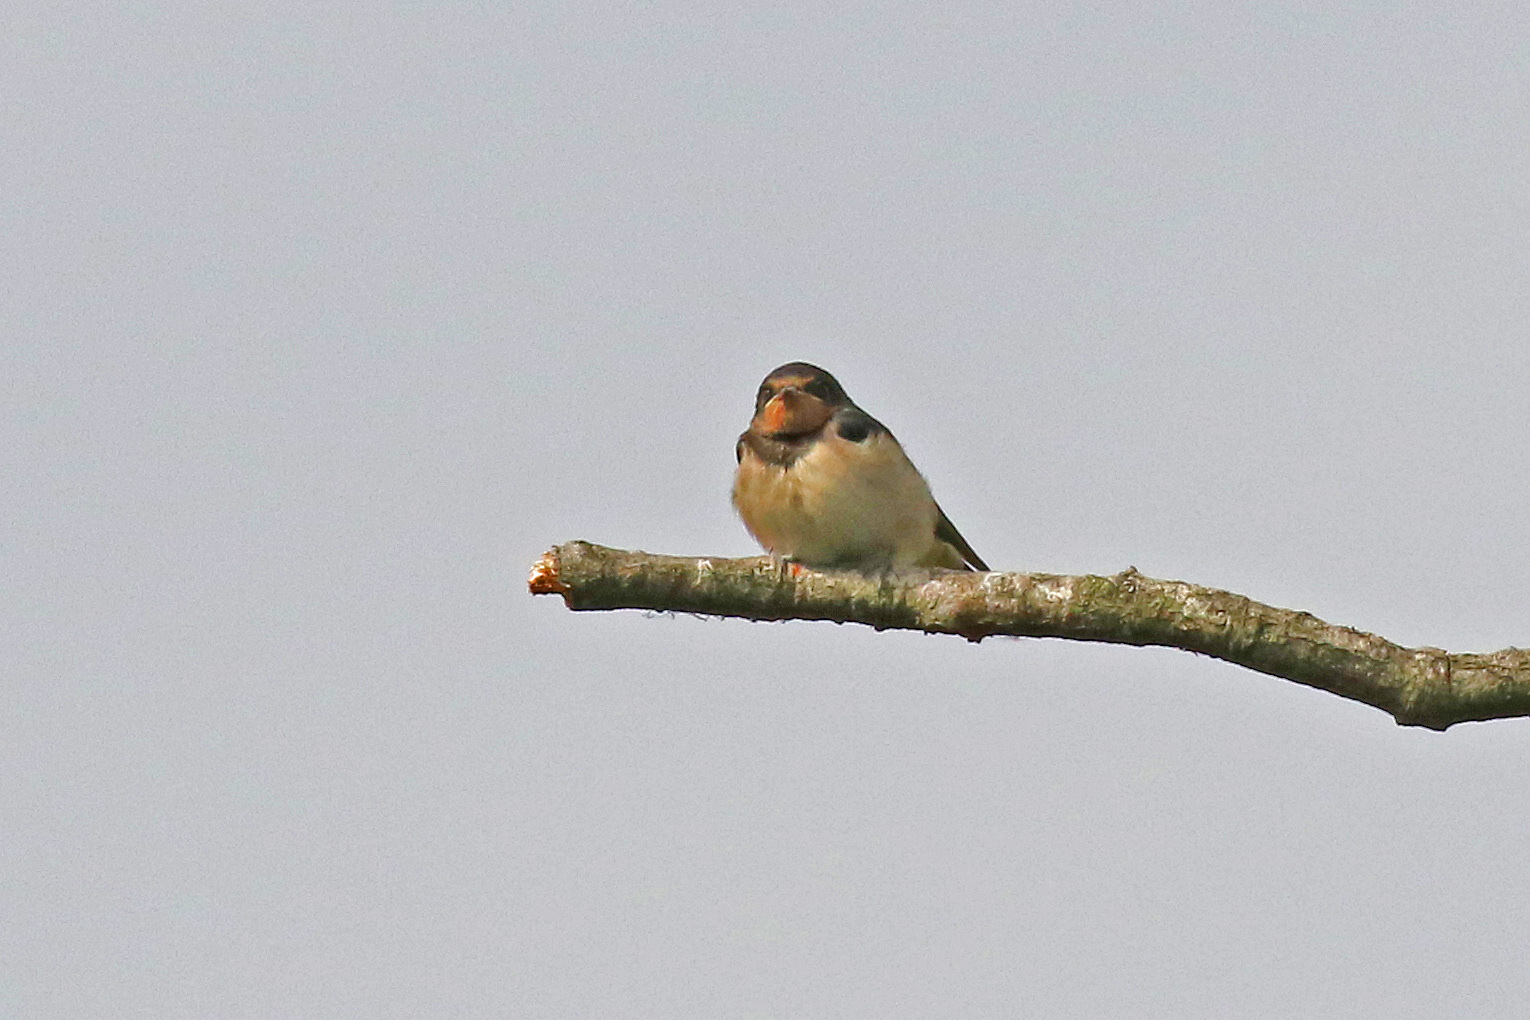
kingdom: Animalia
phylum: Chordata
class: Aves
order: Passeriformes
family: Hirundinidae
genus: Hirundo
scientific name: Hirundo rustica
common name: Barn swallow
